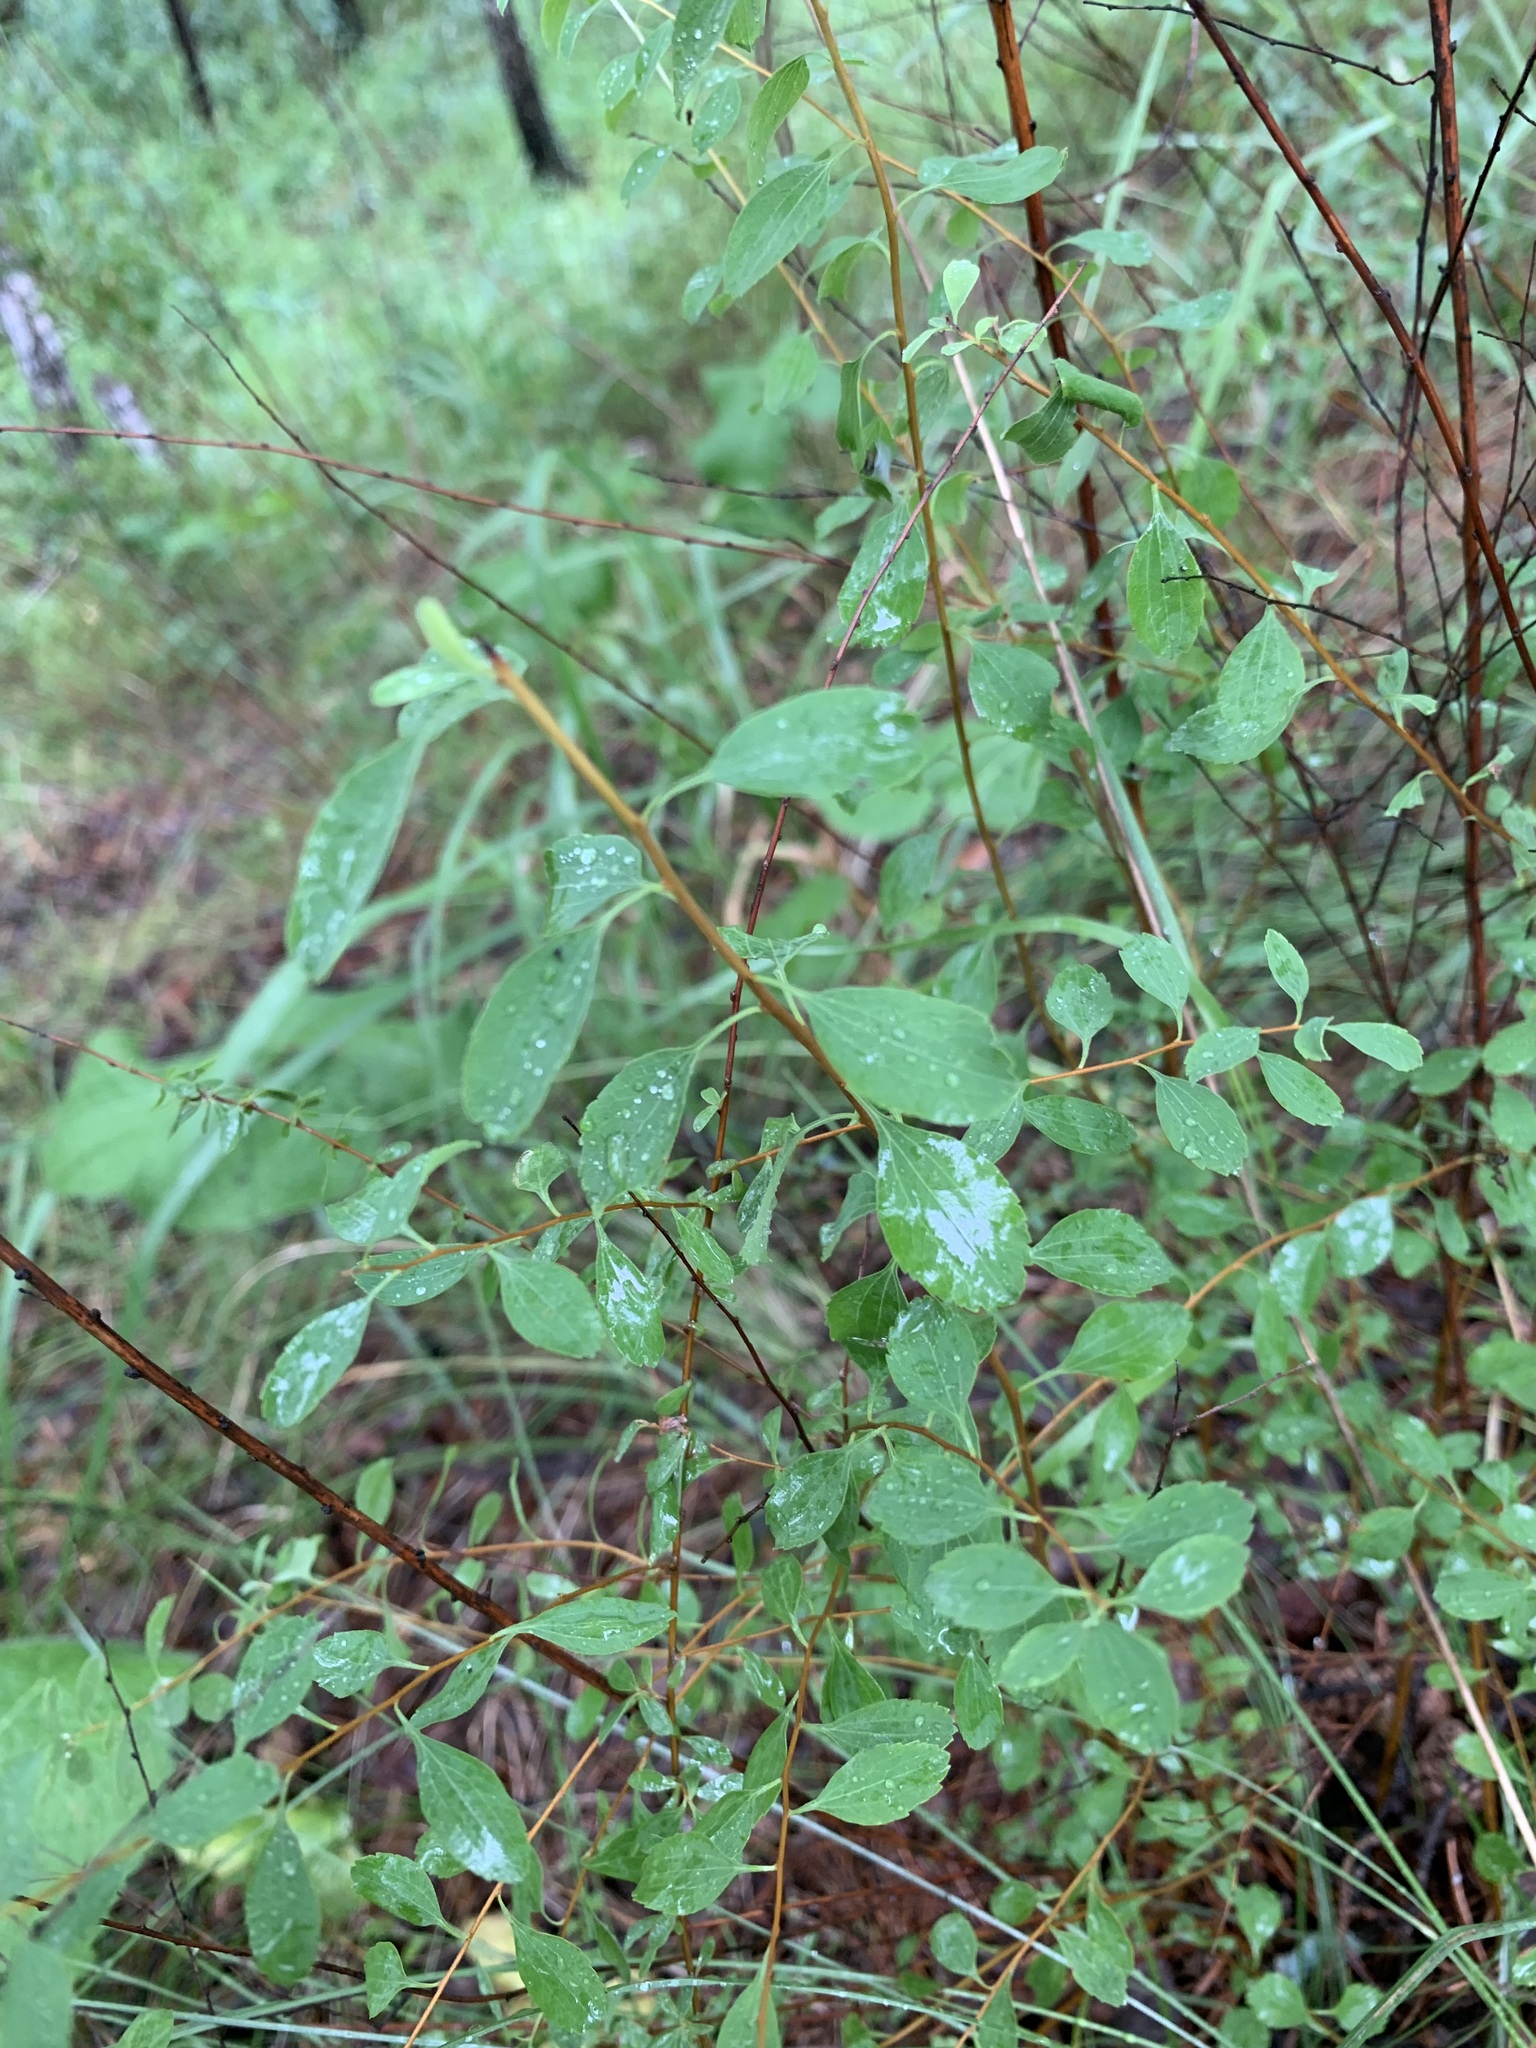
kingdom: Plantae
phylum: Tracheophyta
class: Magnoliopsida
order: Rosales
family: Rosaceae
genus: Spiraea
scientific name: Spiraea crenata
